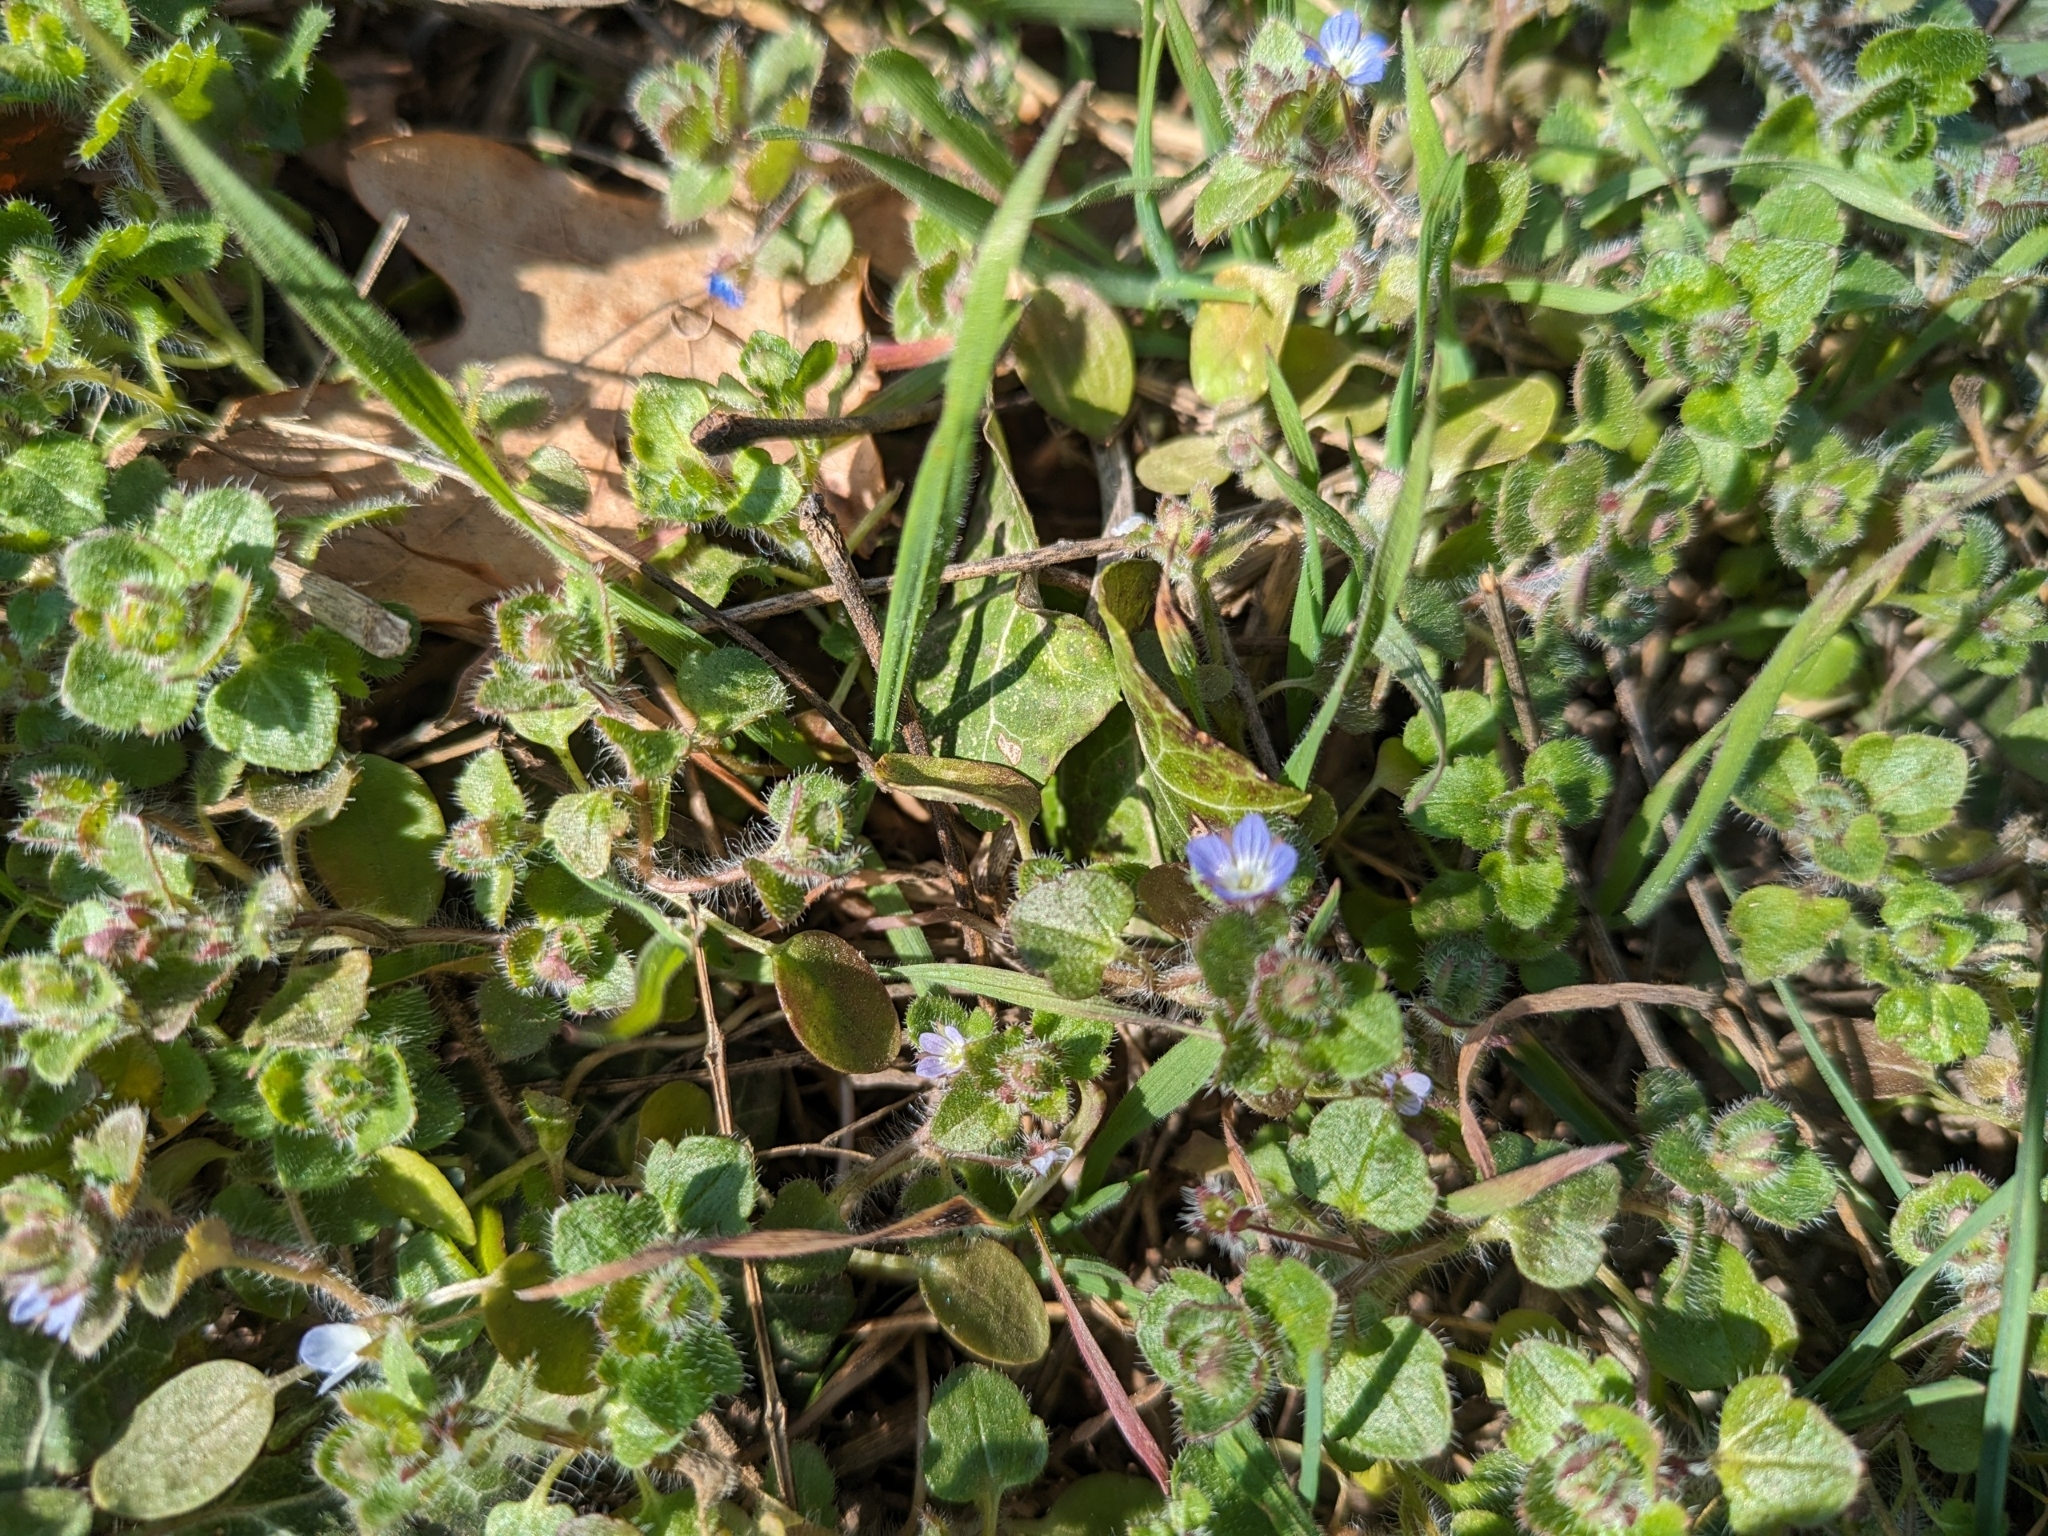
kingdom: Plantae
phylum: Tracheophyta
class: Magnoliopsida
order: Lamiales
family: Plantaginaceae
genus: Veronica
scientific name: Veronica hederifolia
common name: Ivy-leaved speedwell
